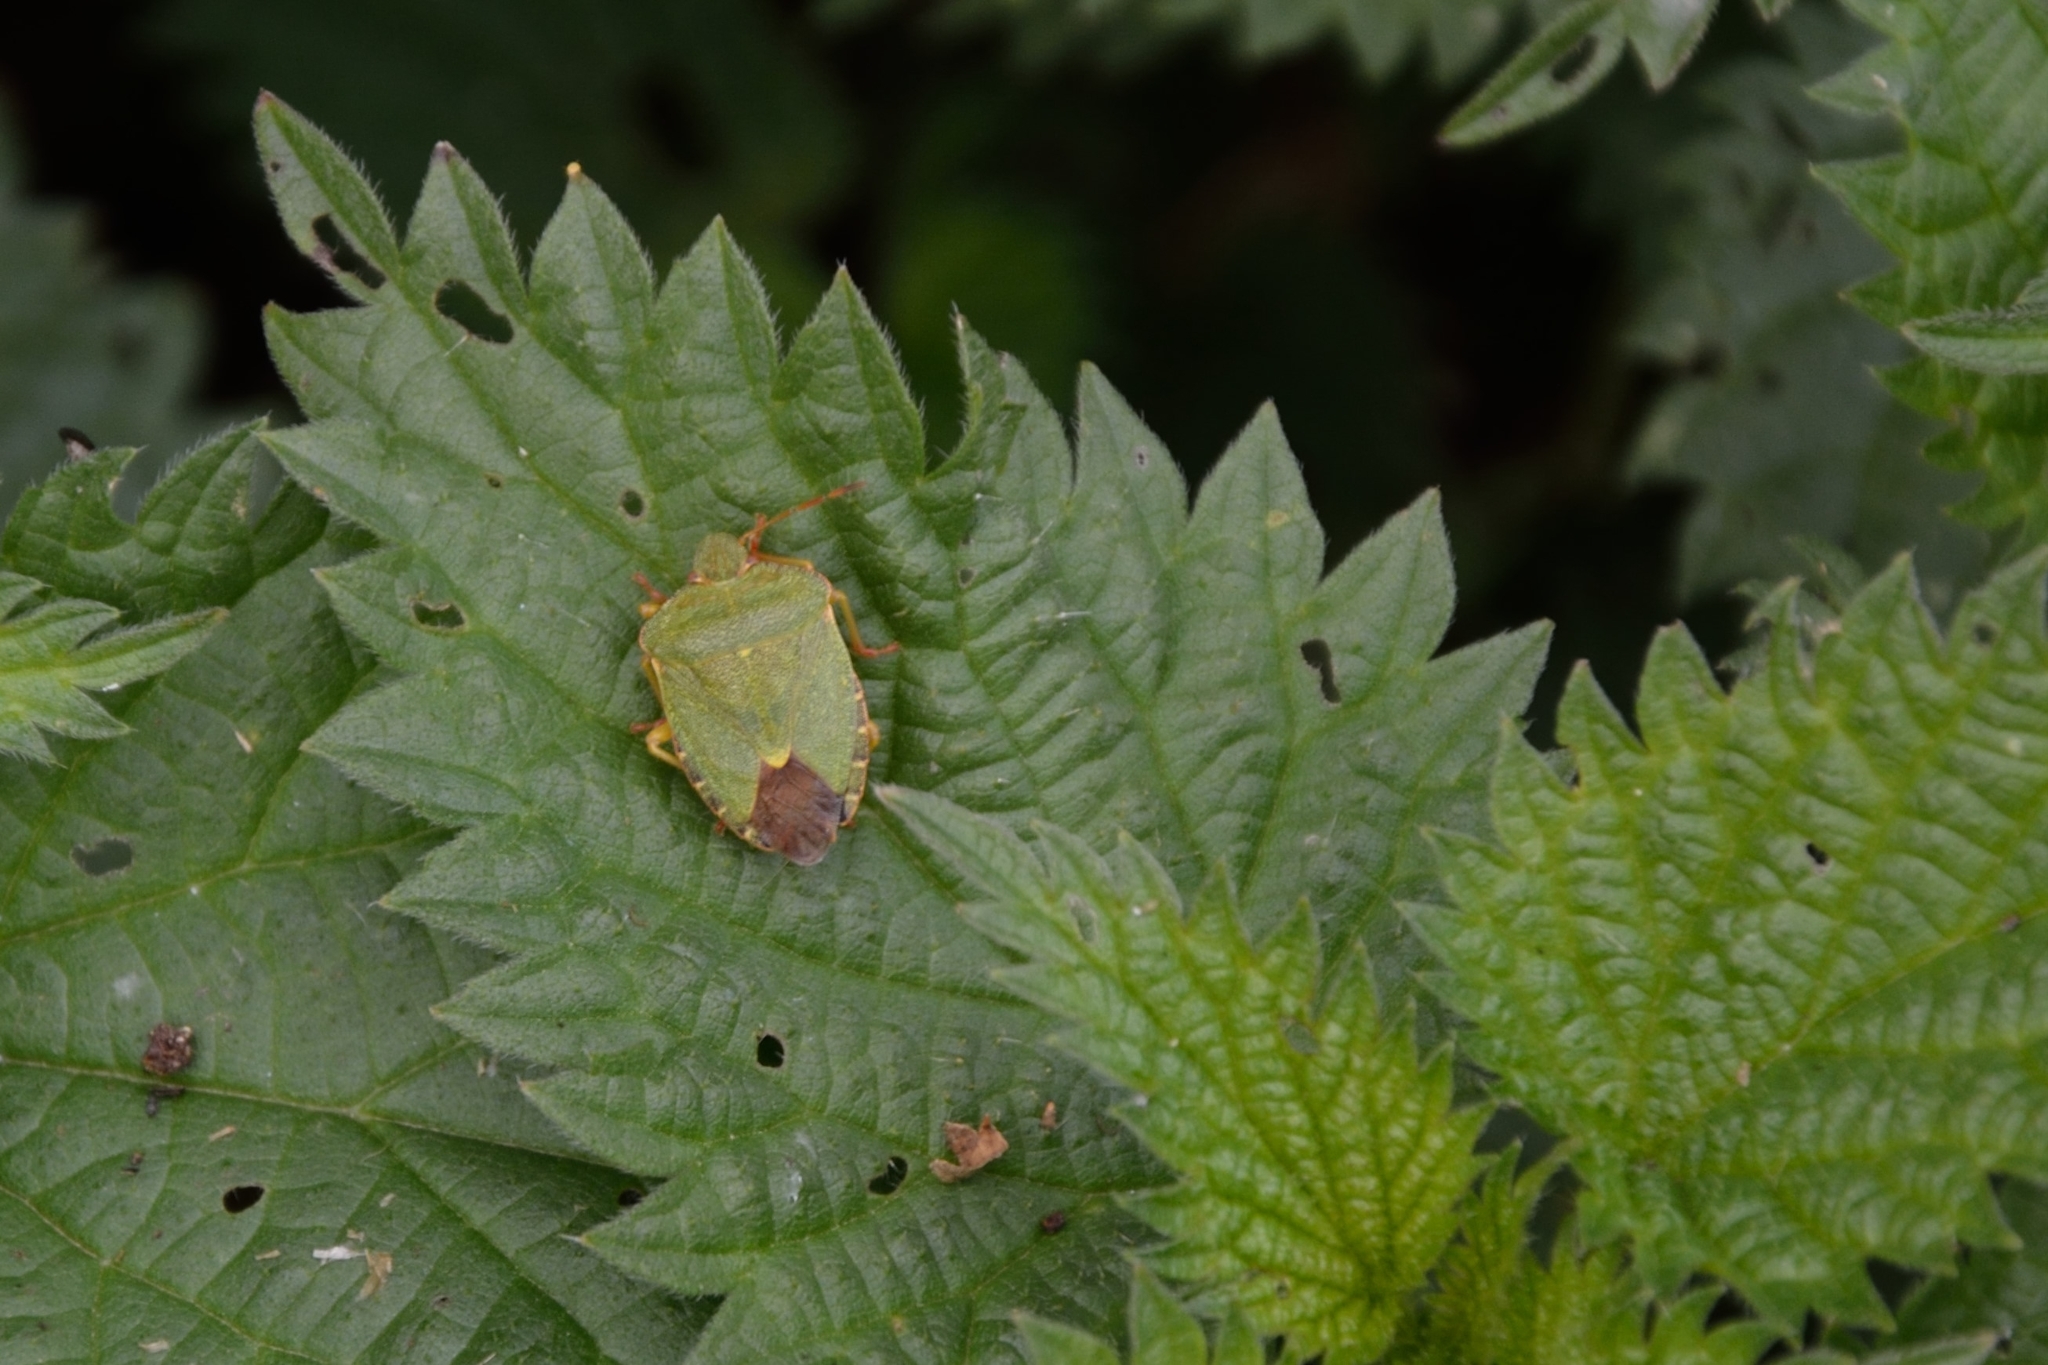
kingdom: Animalia
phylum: Arthropoda
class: Insecta
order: Hemiptera
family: Pentatomidae
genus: Palomena
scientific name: Palomena prasina
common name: Green shieldbug
